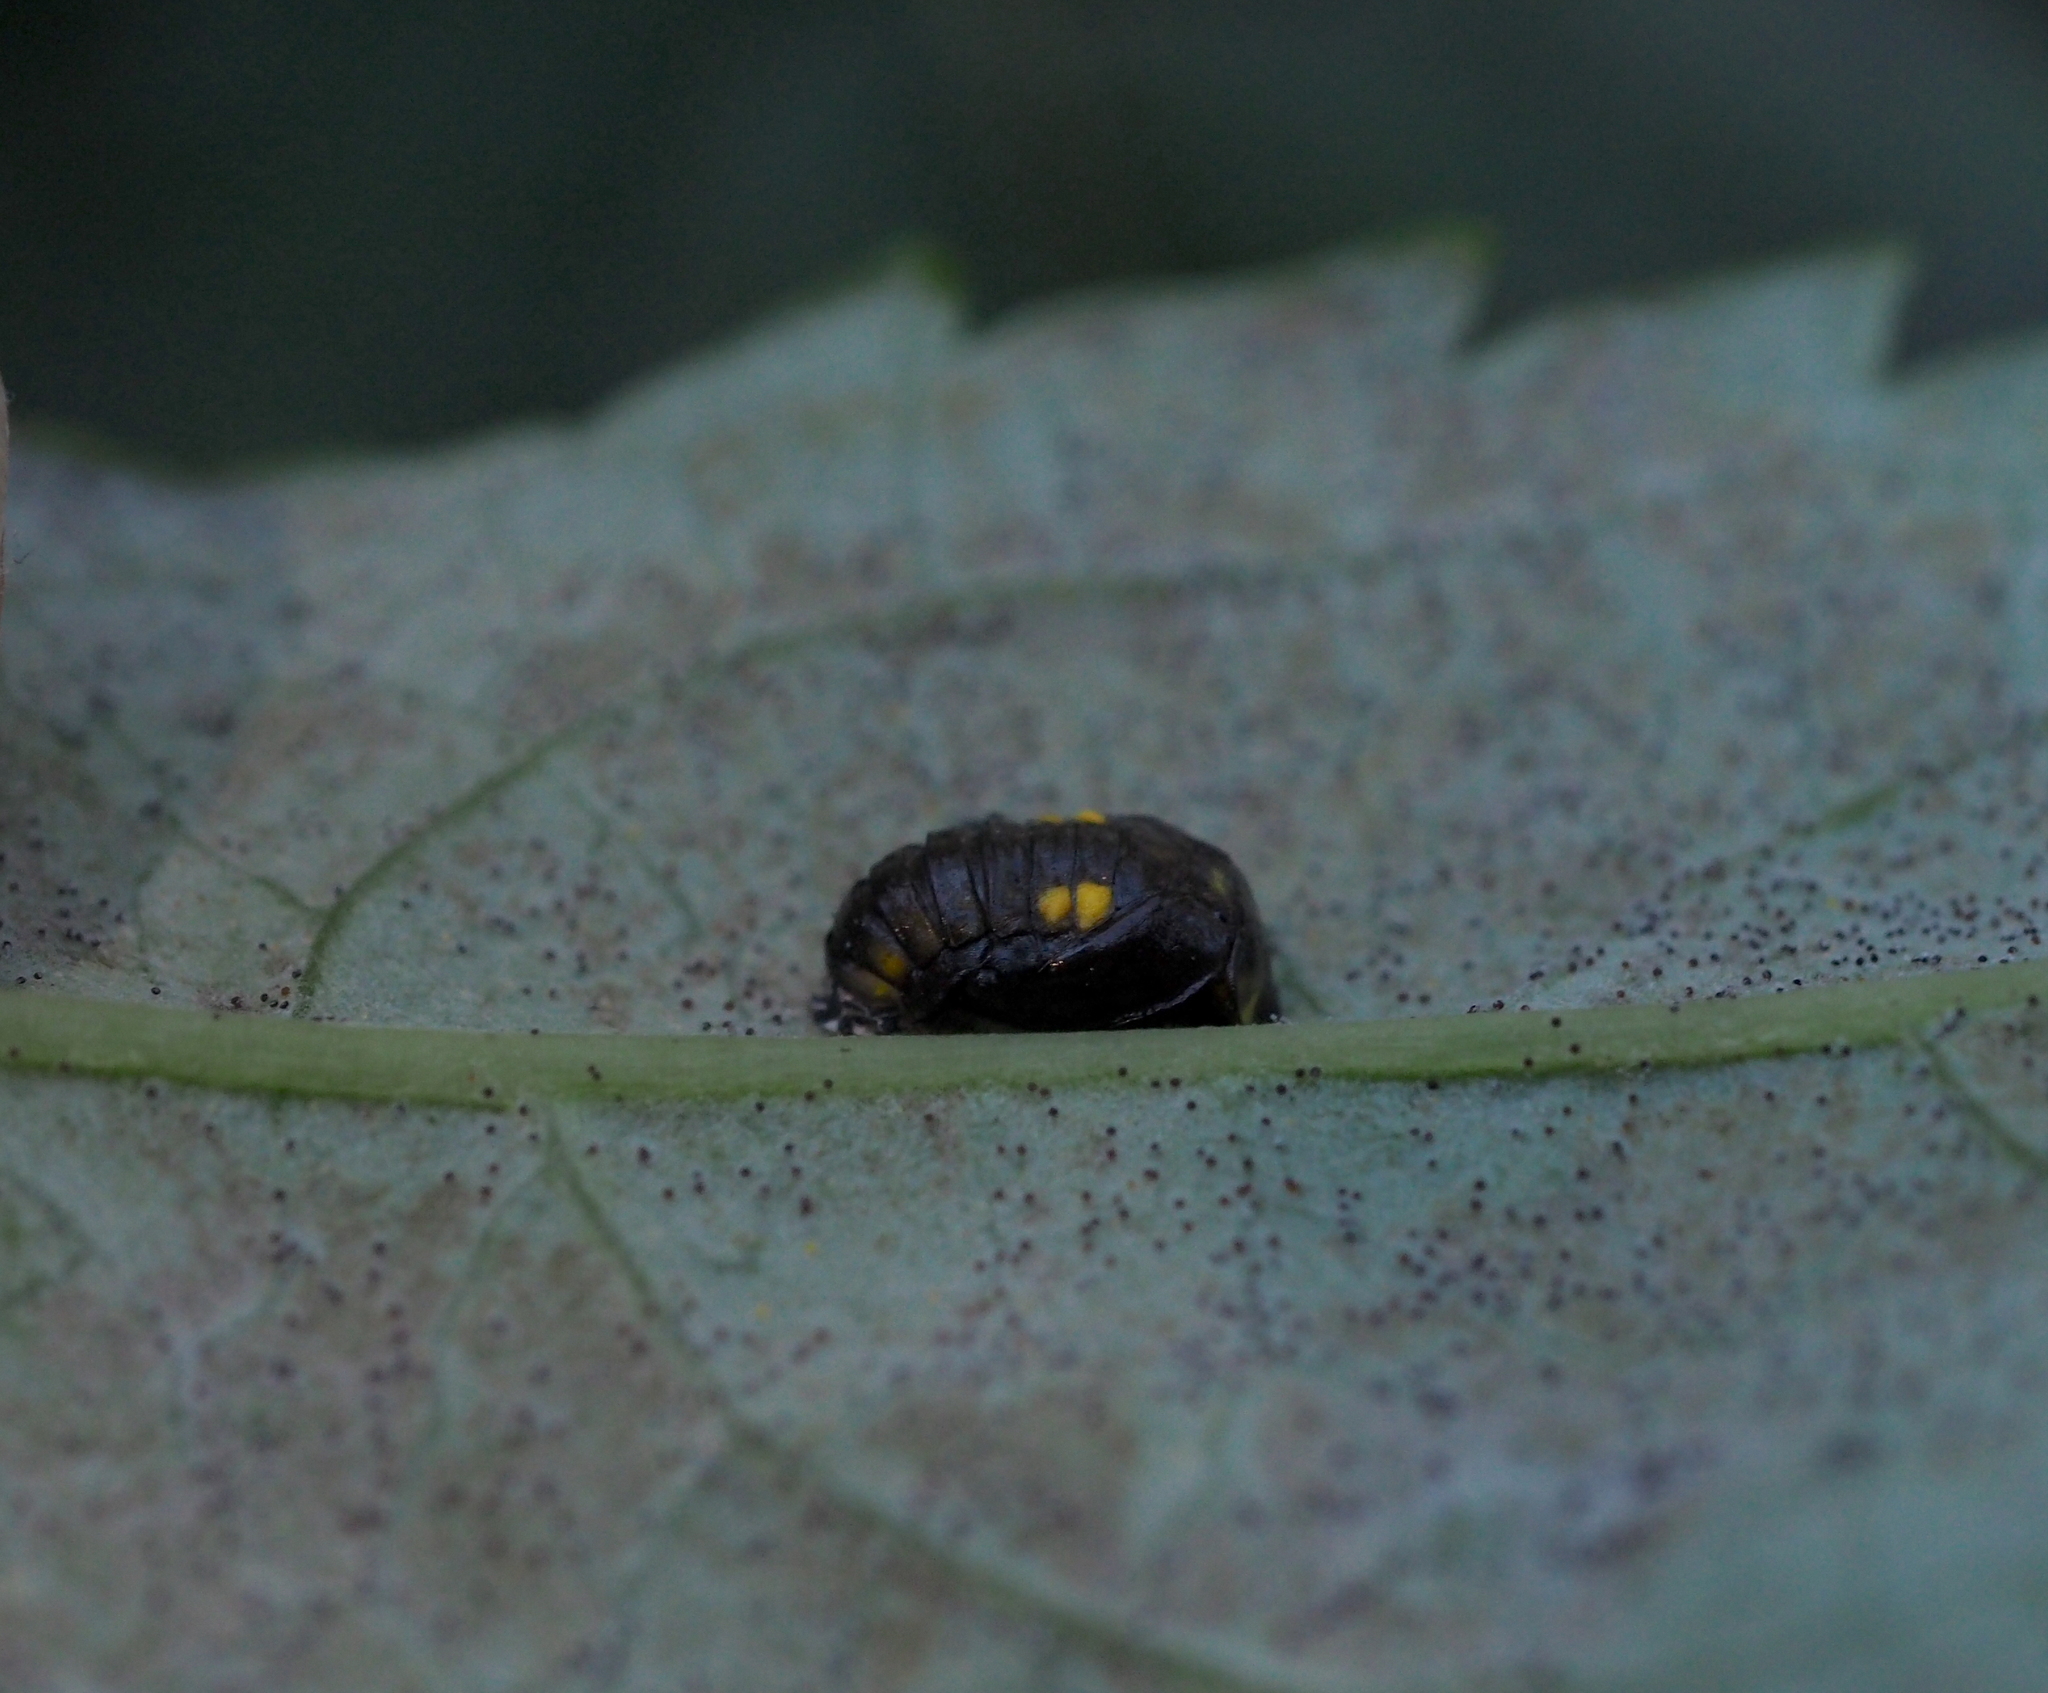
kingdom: Animalia
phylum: Arthropoda
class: Insecta
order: Coleoptera
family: Coccinellidae
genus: Halyzia
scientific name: Halyzia sedecimguttata
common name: Orange ladybird
